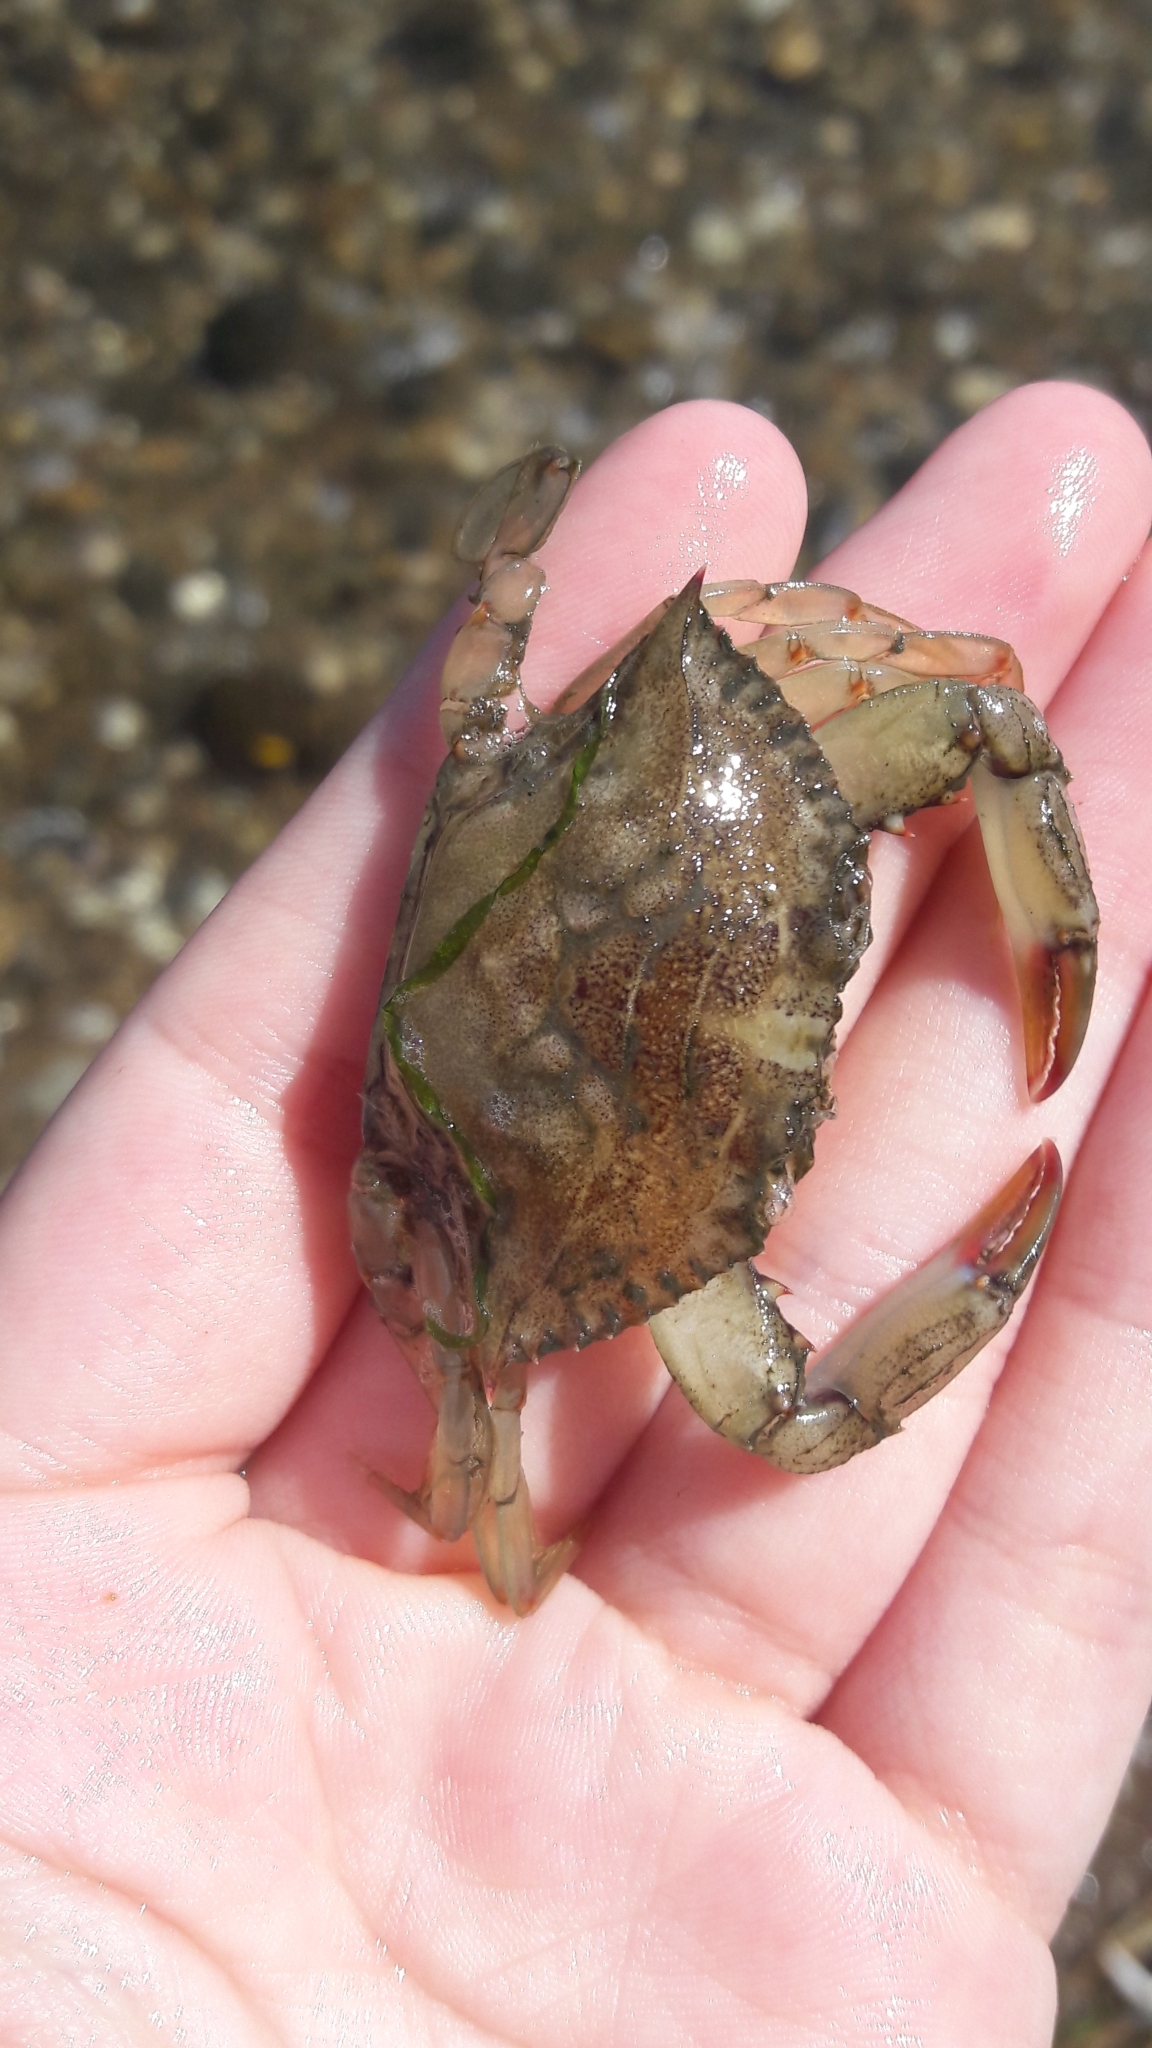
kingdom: Animalia
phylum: Arthropoda
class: Malacostraca
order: Decapoda
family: Portunidae
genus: Callinectes
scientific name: Callinectes sapidus
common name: Blue crab
